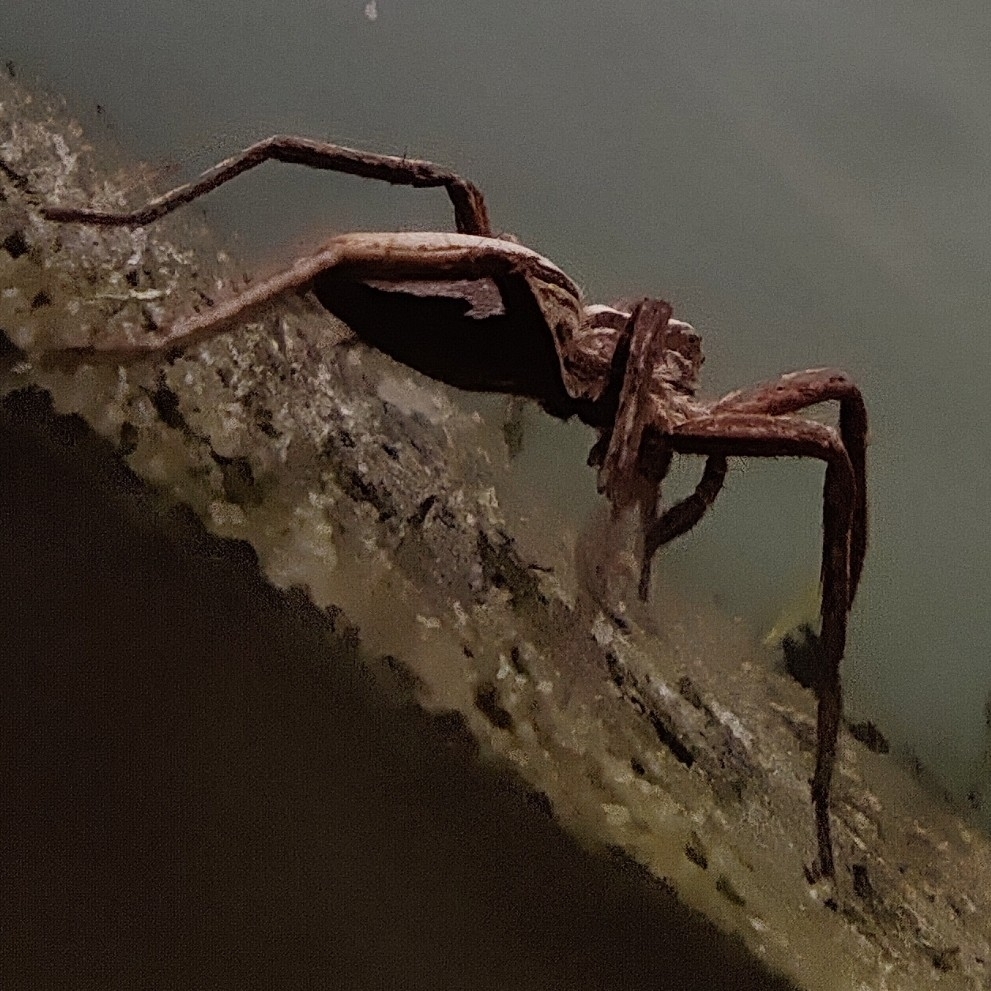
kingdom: Animalia
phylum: Arthropoda
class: Arachnida
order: Araneae
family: Pisauridae
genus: Pisaura
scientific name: Pisaura mirabilis
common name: Tent spider
